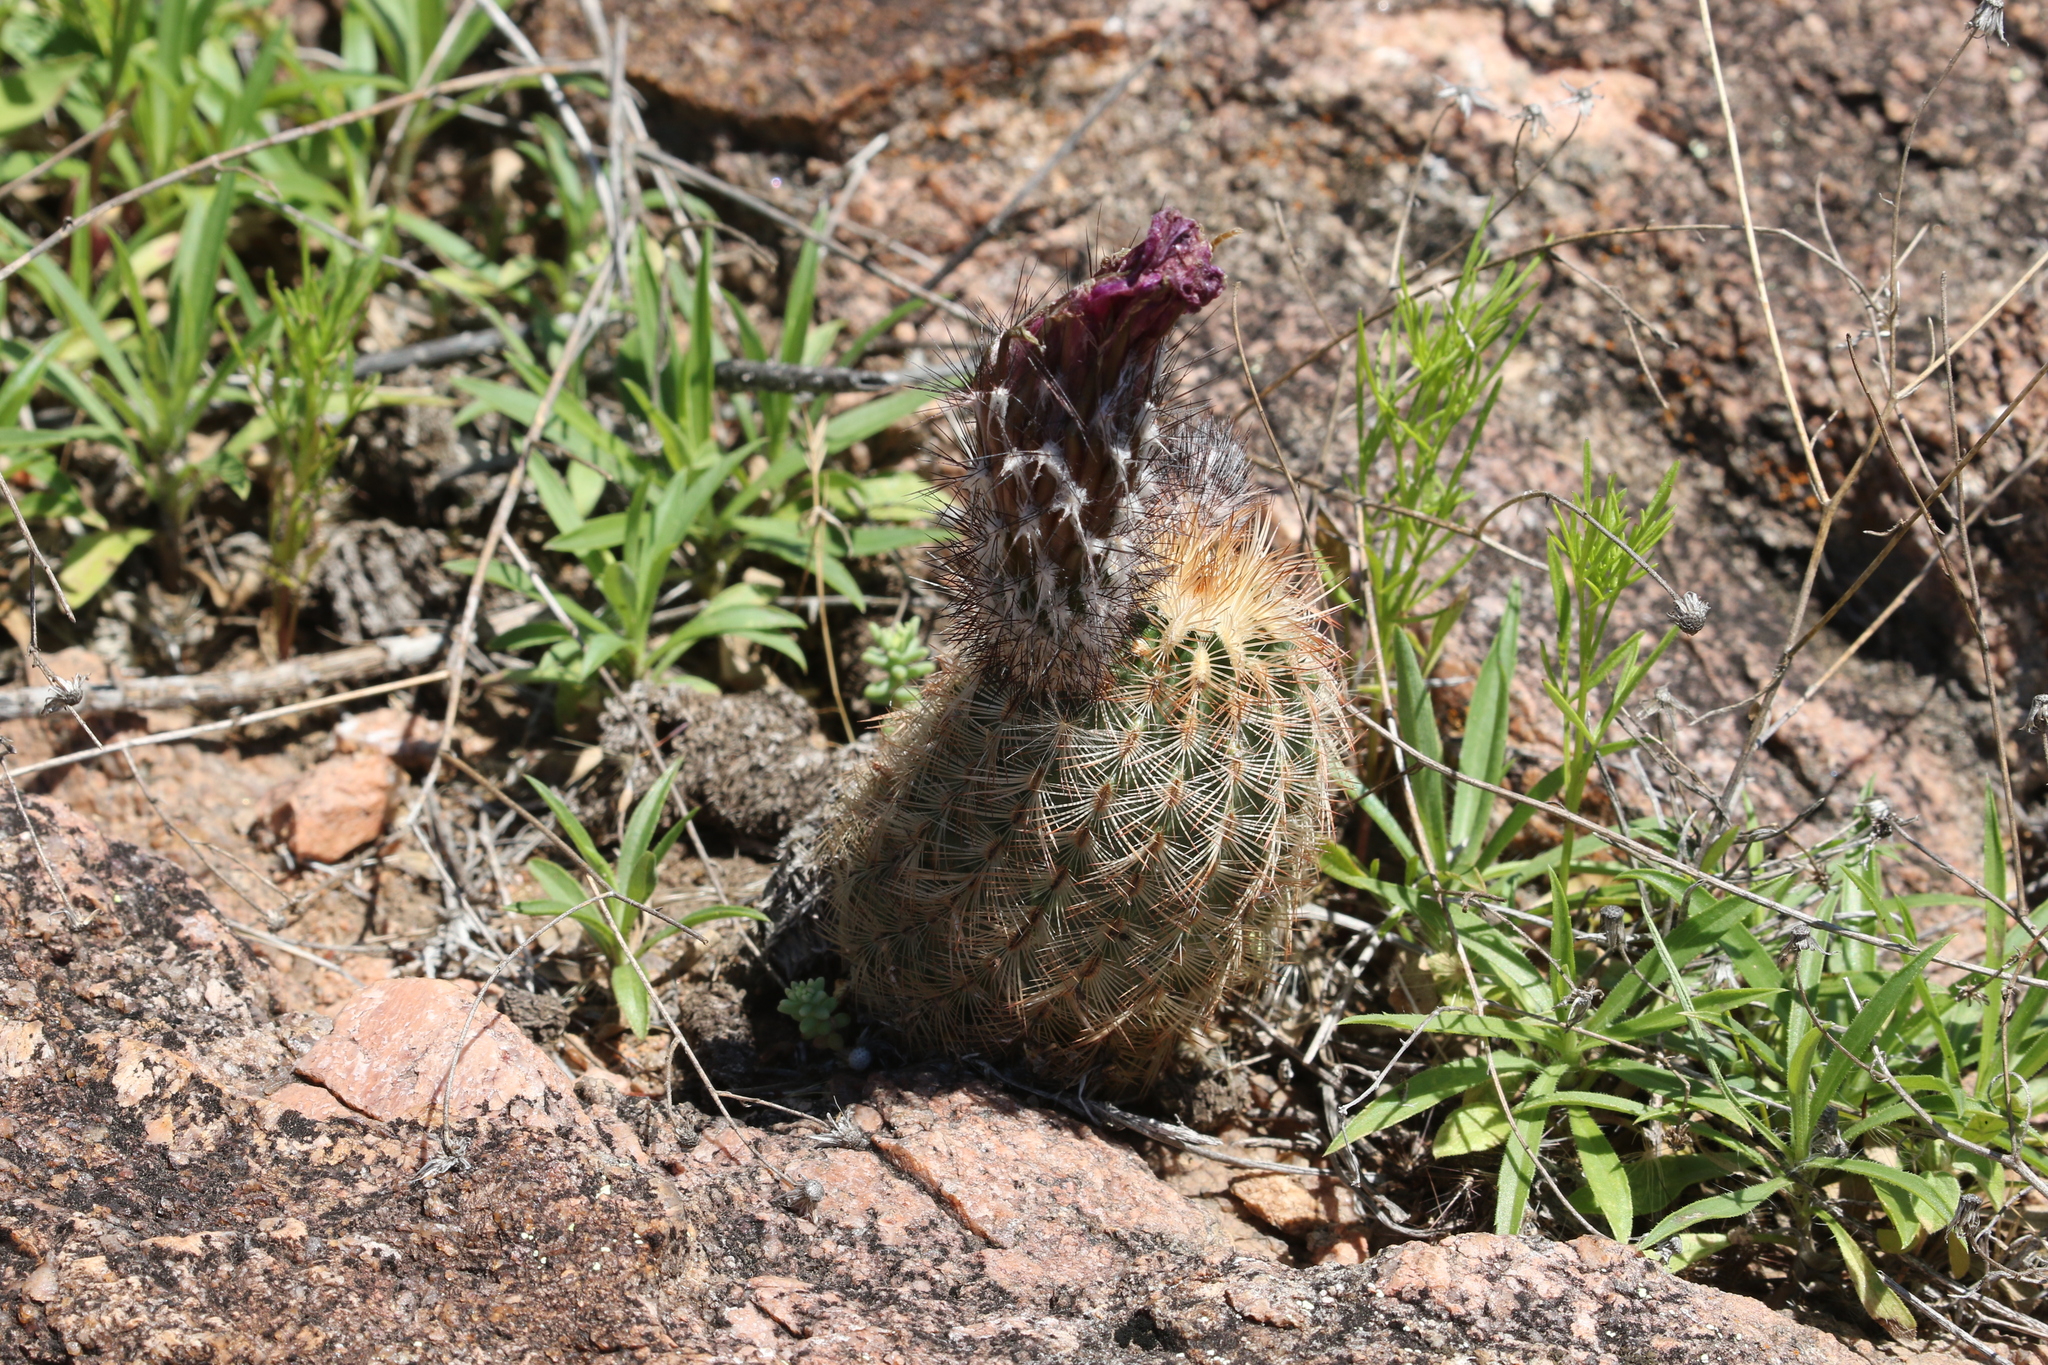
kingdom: Plantae
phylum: Tracheophyta
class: Magnoliopsida
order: Caryophyllales
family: Cactaceae
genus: Echinocereus
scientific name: Echinocereus reichenbachii
